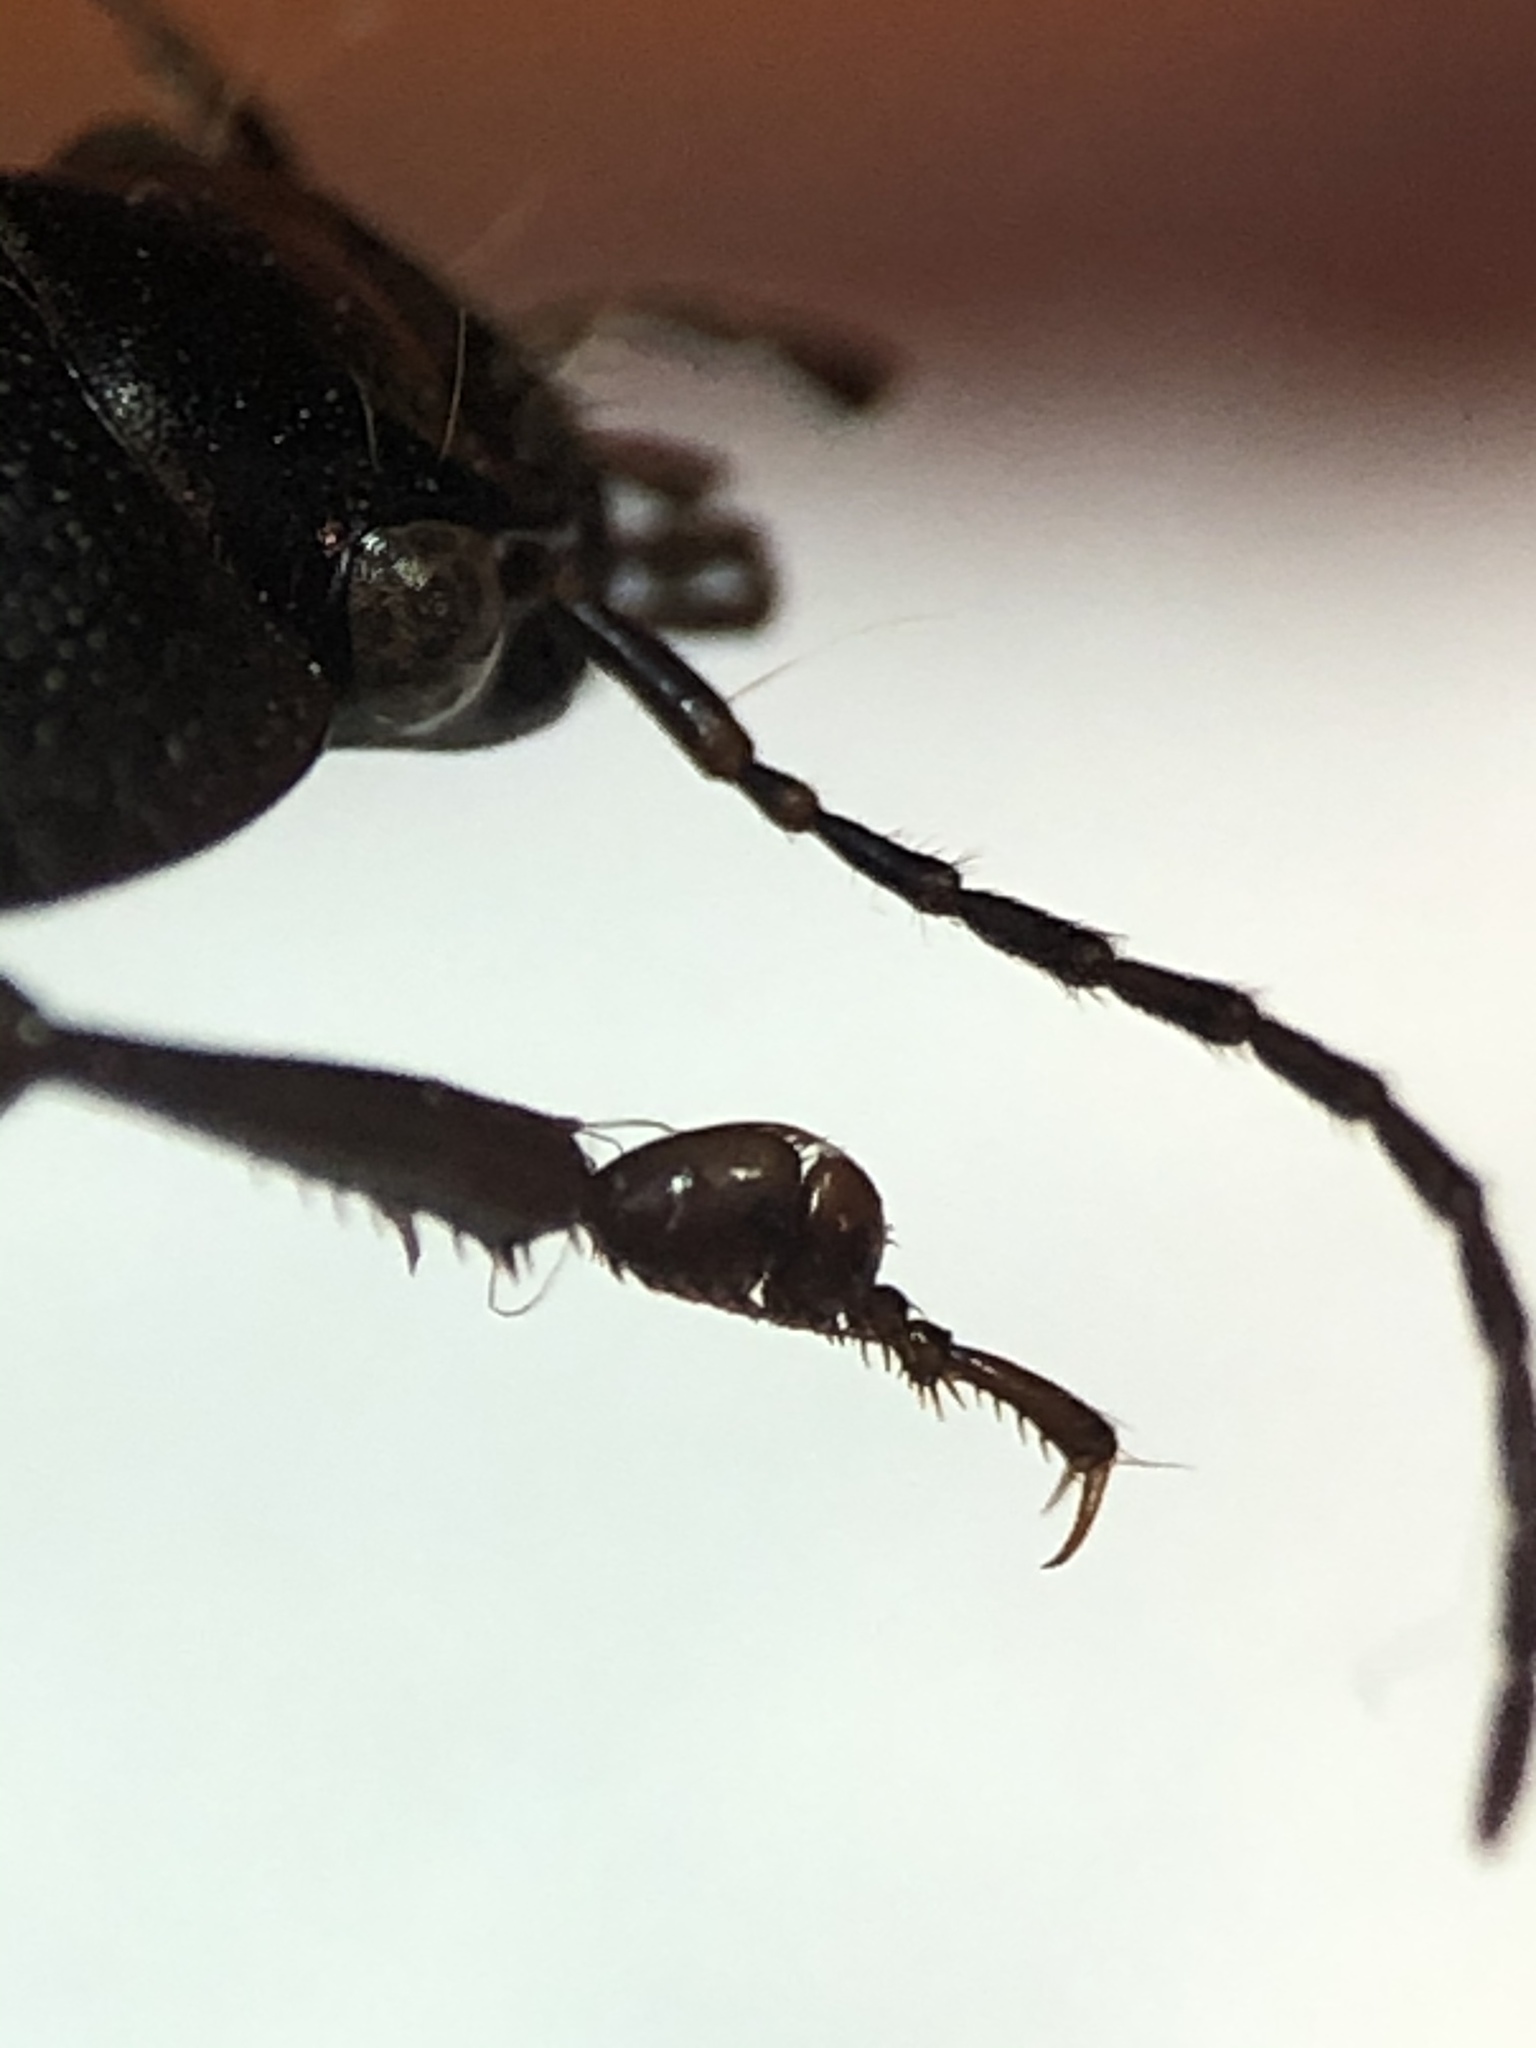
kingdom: Animalia
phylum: Arthropoda
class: Insecta
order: Coleoptera
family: Carabidae
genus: Licinus
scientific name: Licinus silphoides
